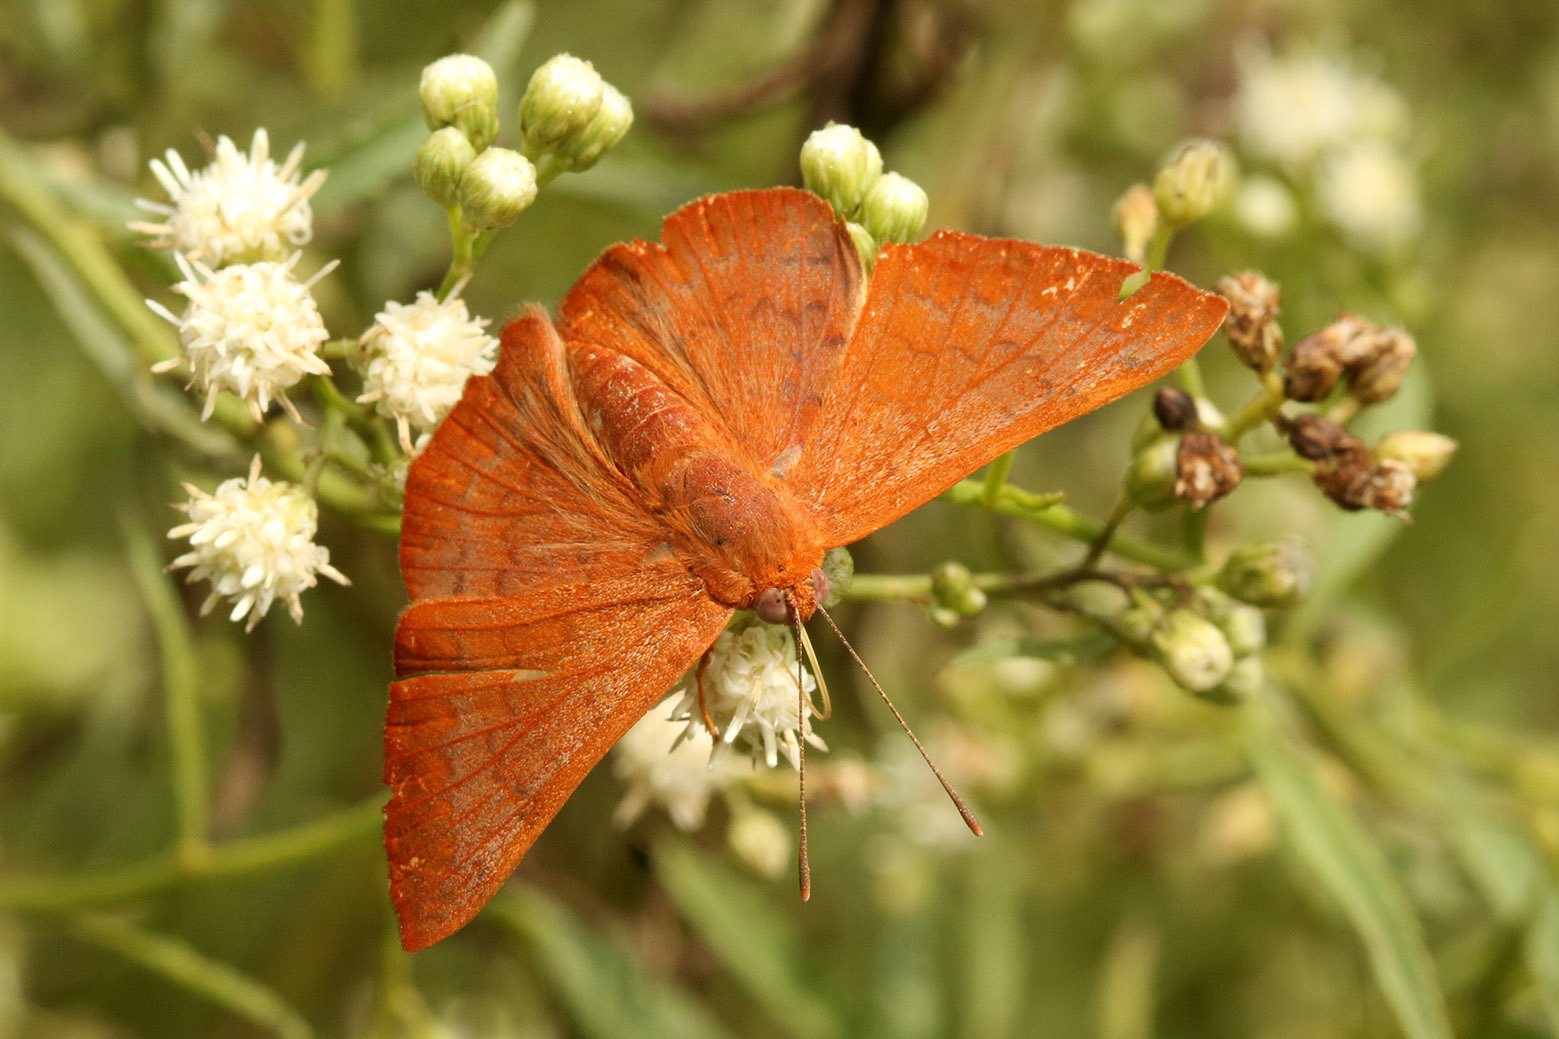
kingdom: Animalia
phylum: Arthropoda
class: Insecta
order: Lepidoptera
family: Lycaenidae
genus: Emesis
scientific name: Emesis russula
